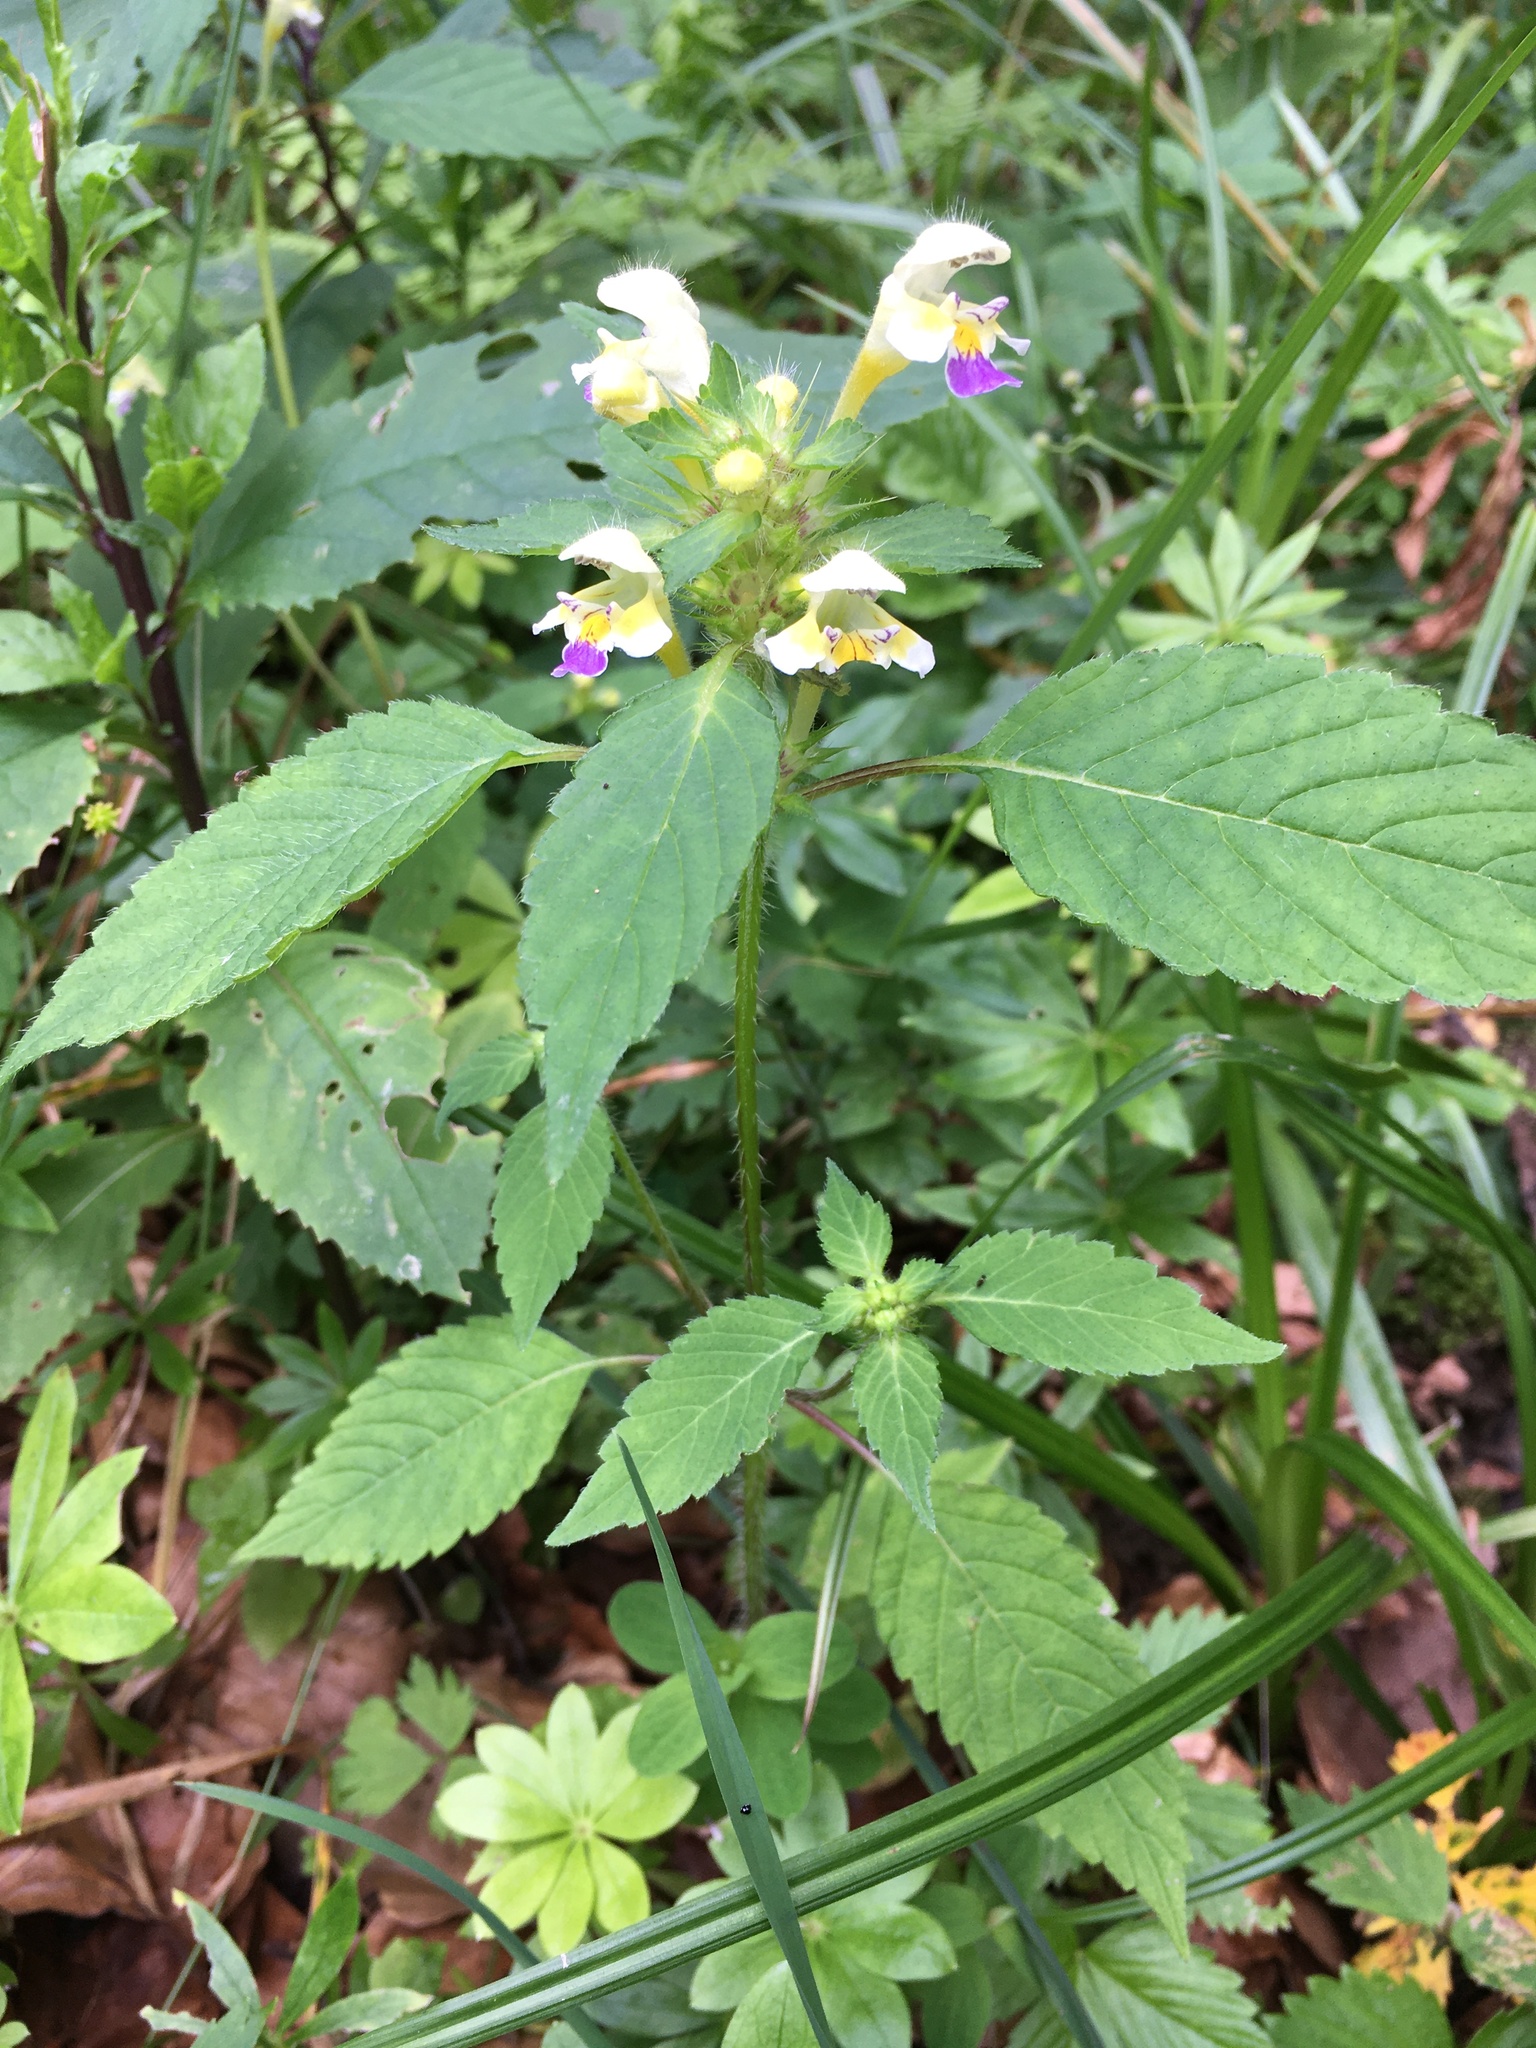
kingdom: Plantae
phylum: Tracheophyta
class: Magnoliopsida
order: Lamiales
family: Lamiaceae
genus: Galeopsis
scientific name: Galeopsis speciosa
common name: Large-flowered hemp-nettle
